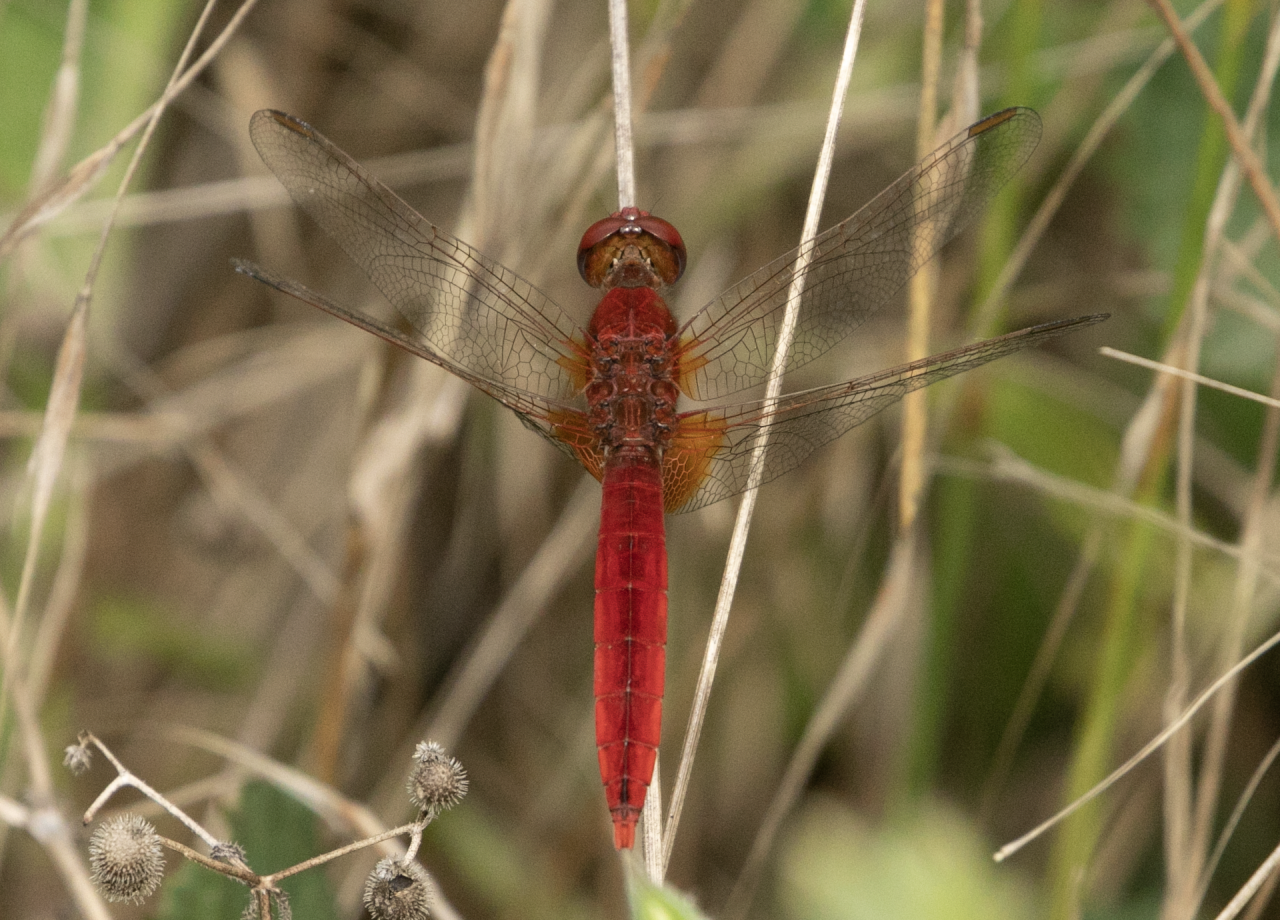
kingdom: Animalia
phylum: Arthropoda
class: Insecta
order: Odonata
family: Libellulidae
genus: Crocothemis
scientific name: Crocothemis erythraea
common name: Scarlet dragonfly
